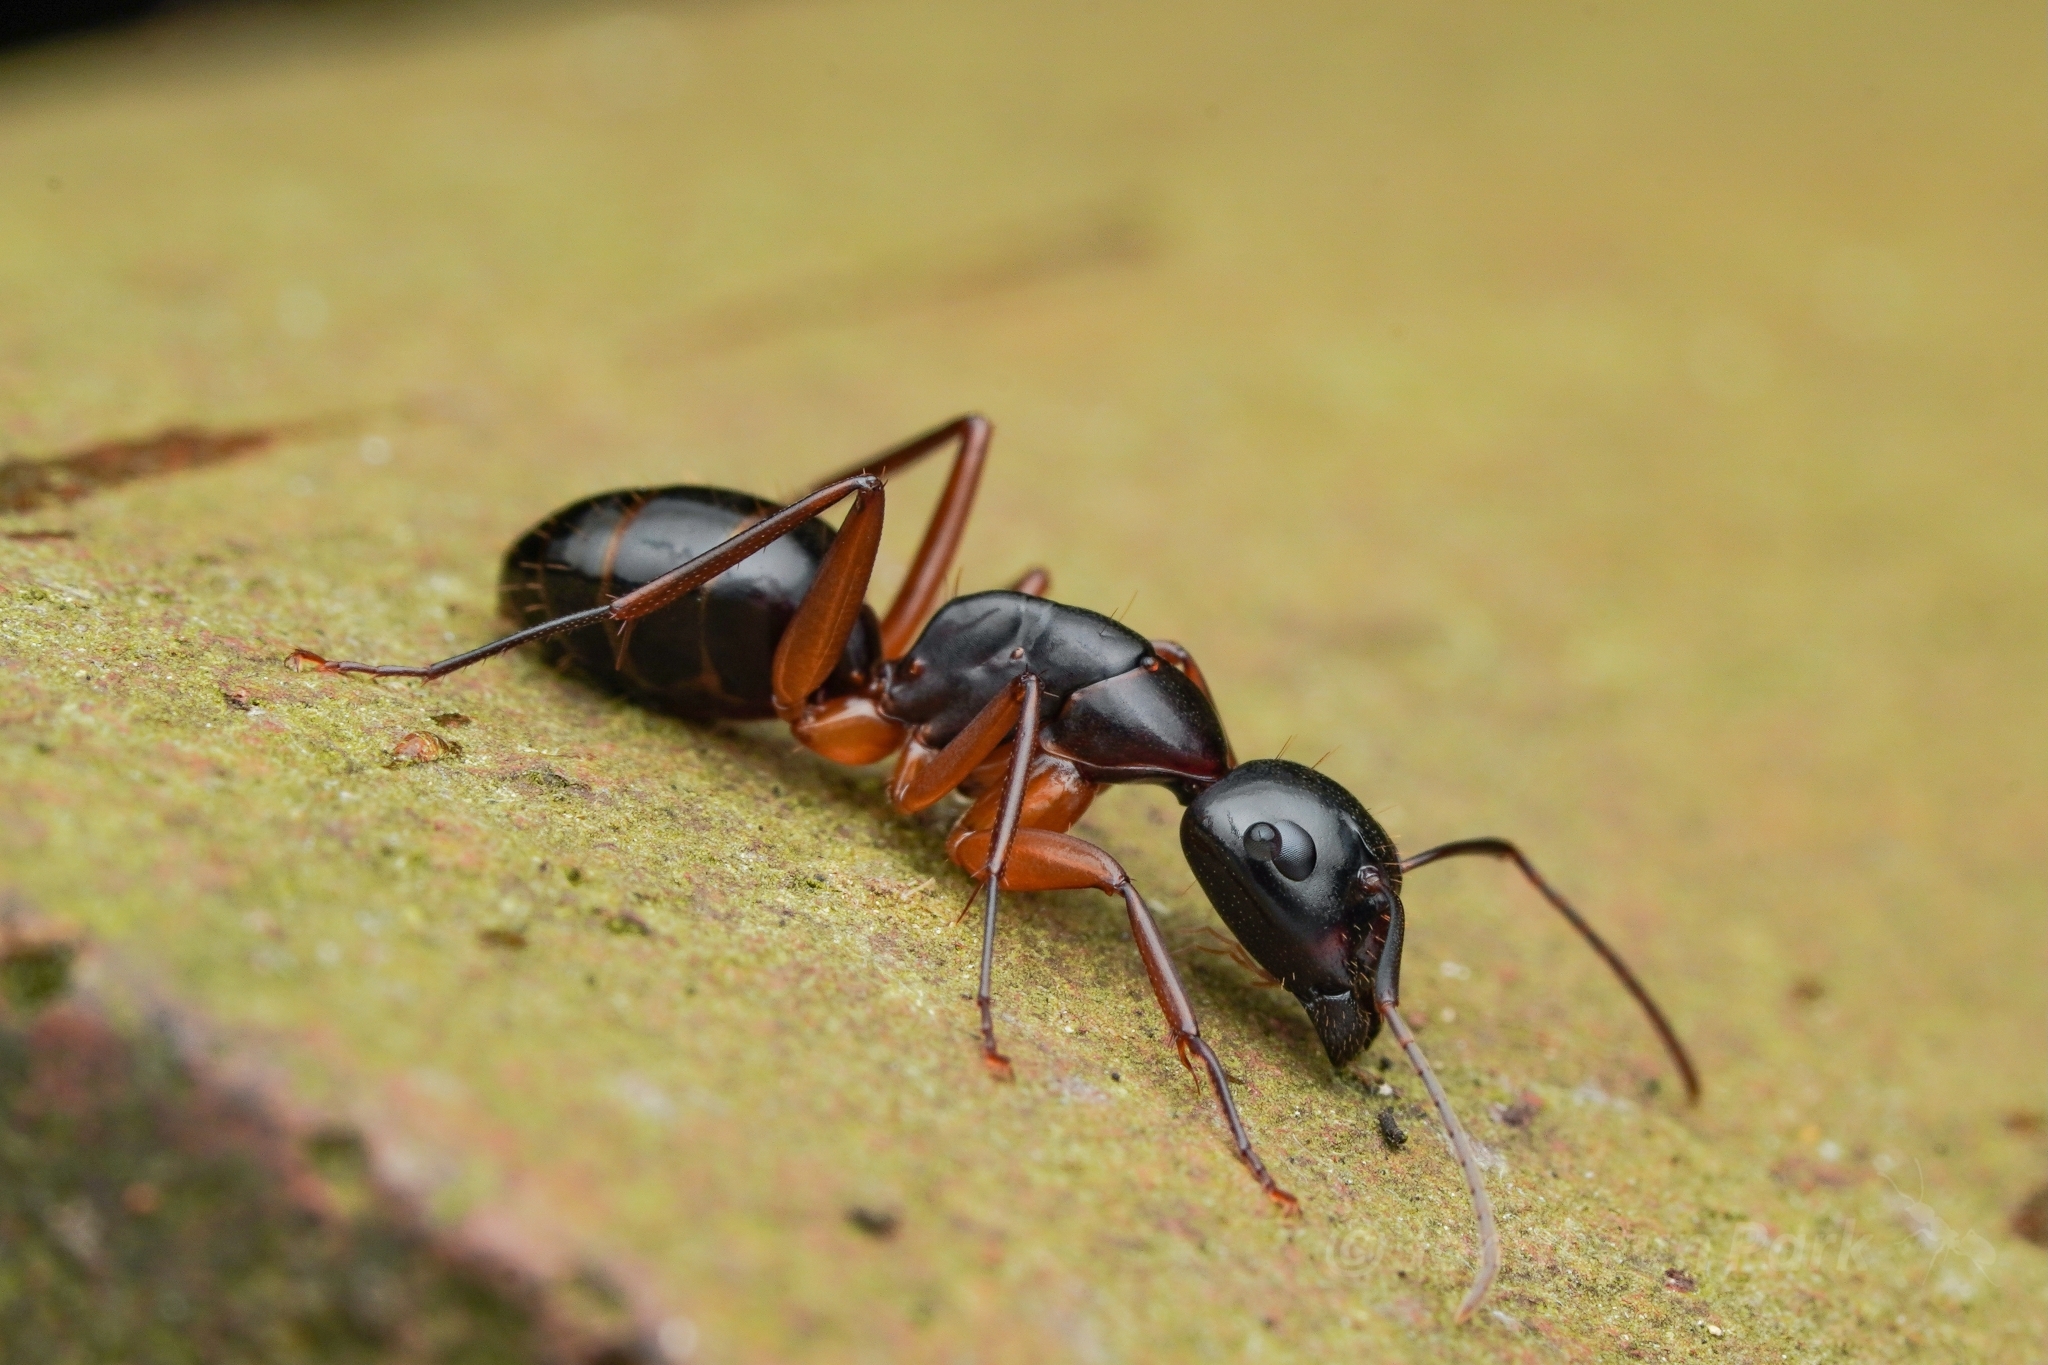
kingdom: Animalia
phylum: Arthropoda
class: Insecta
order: Hymenoptera
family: Formicidae
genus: Camponotus
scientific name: Camponotus kiusiuensis
